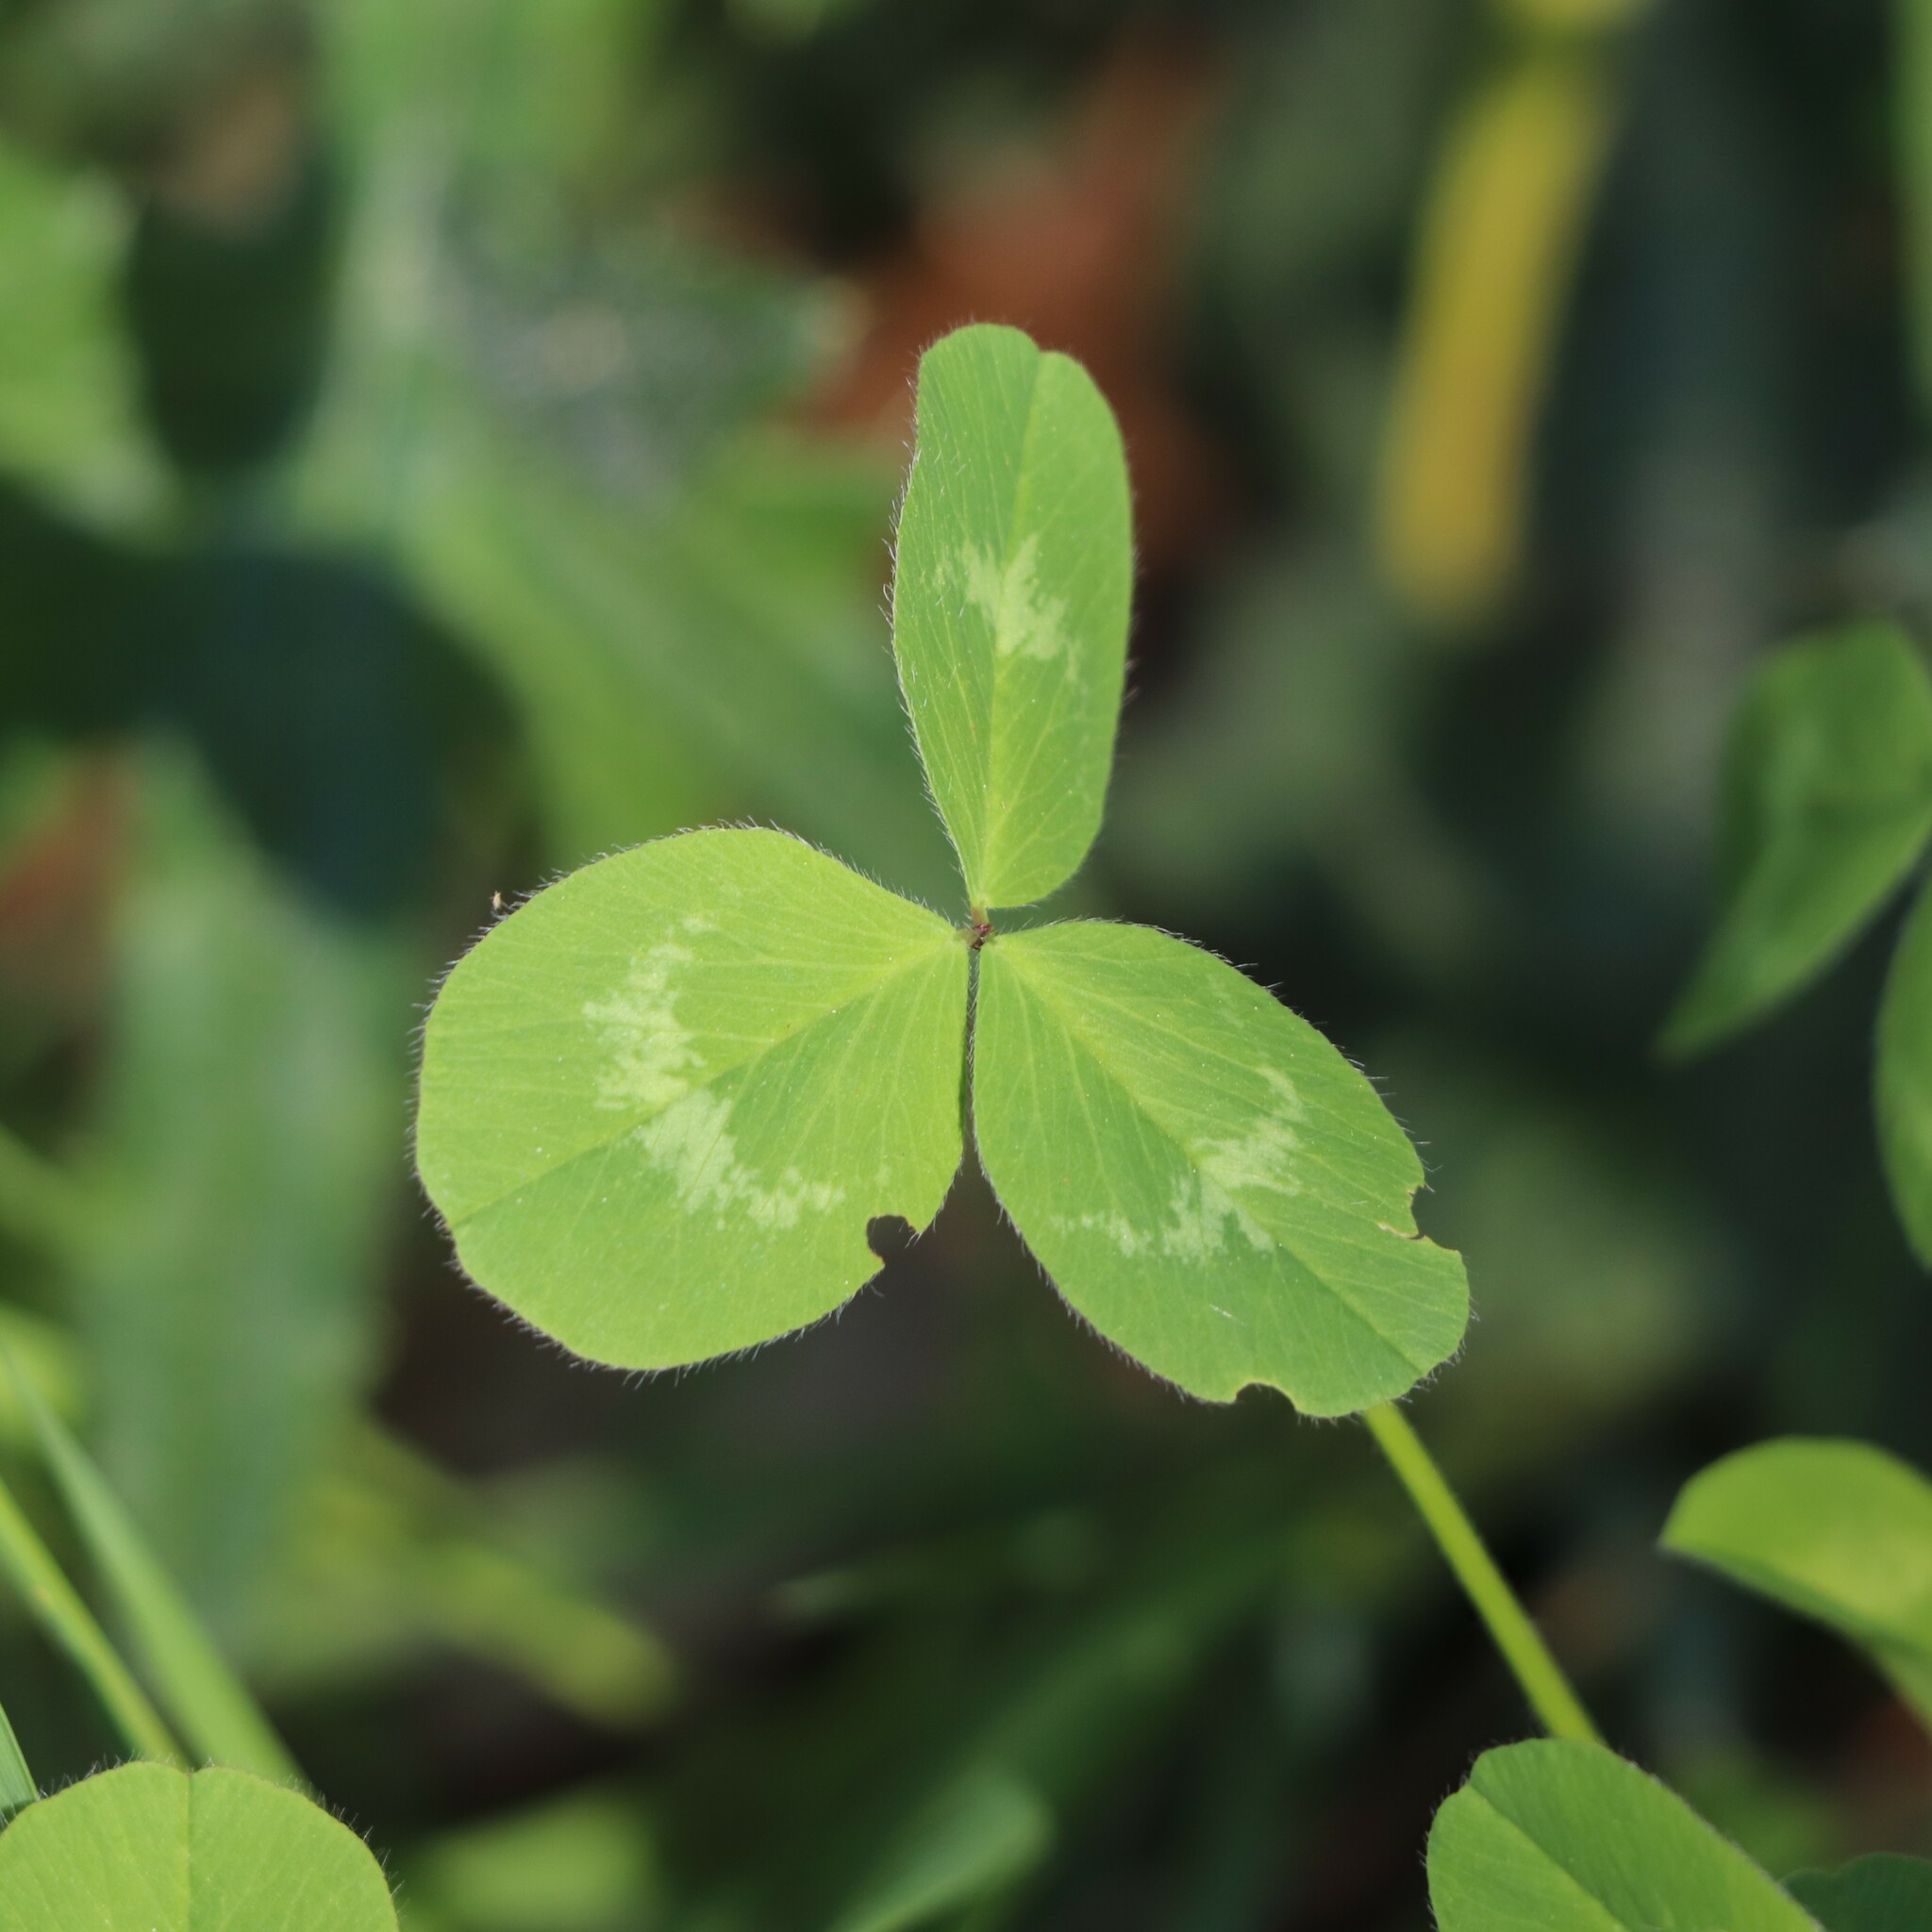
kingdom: Plantae
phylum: Tracheophyta
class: Magnoliopsida
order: Fabales
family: Fabaceae
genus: Trifolium
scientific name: Trifolium pratense
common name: Red clover
